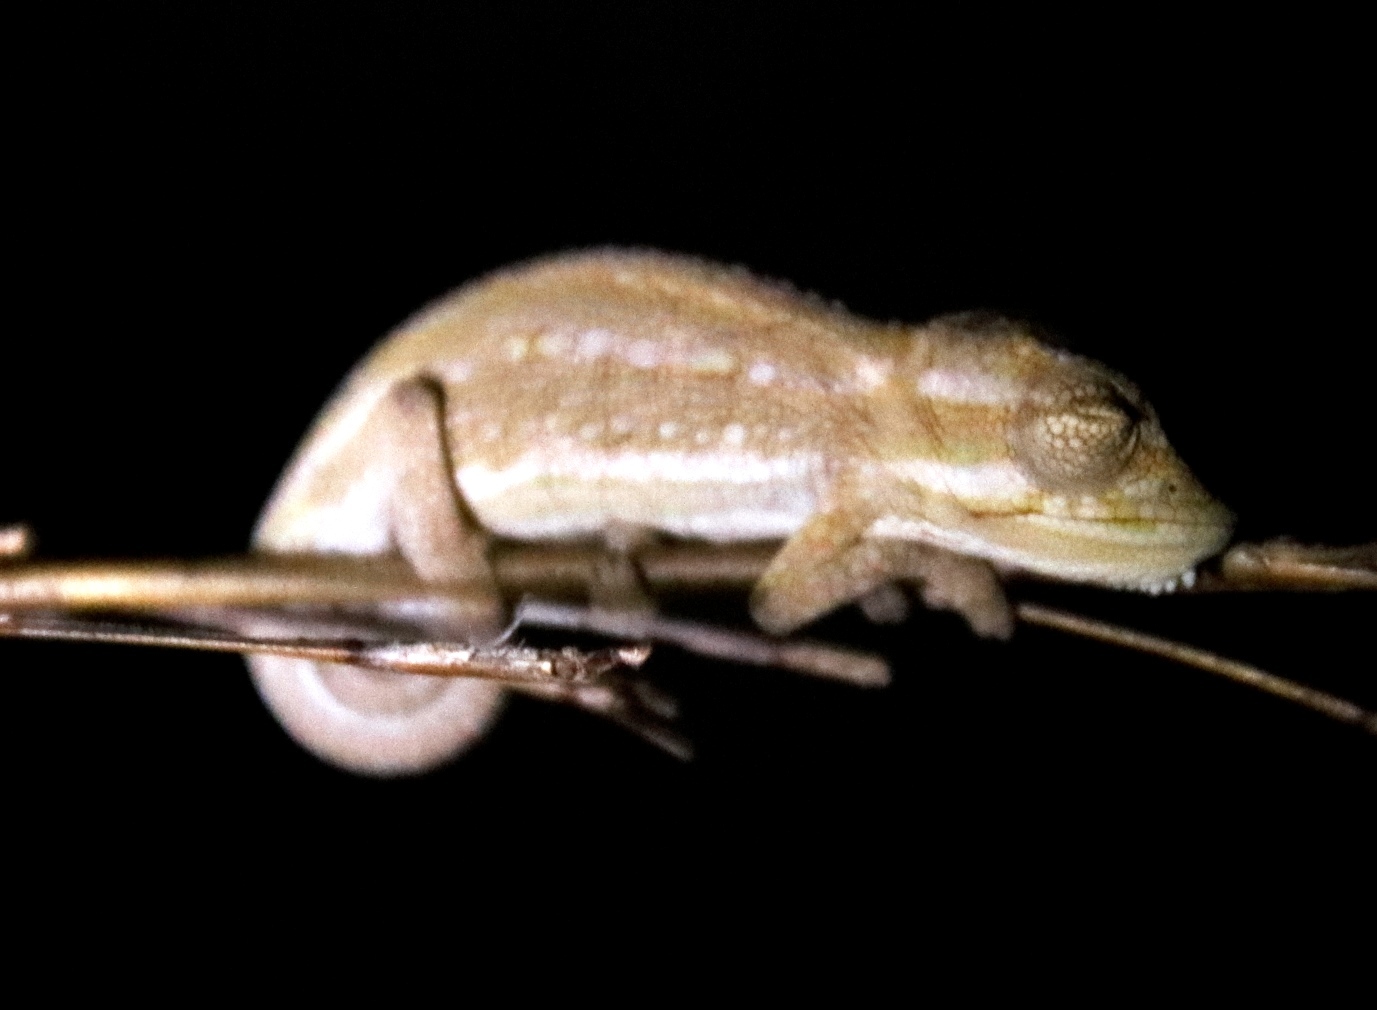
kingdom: Animalia
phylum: Chordata
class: Squamata
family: Chamaeleonidae
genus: Bradypodion
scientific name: Bradypodion pumilum
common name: Cape dwarf chameleon
